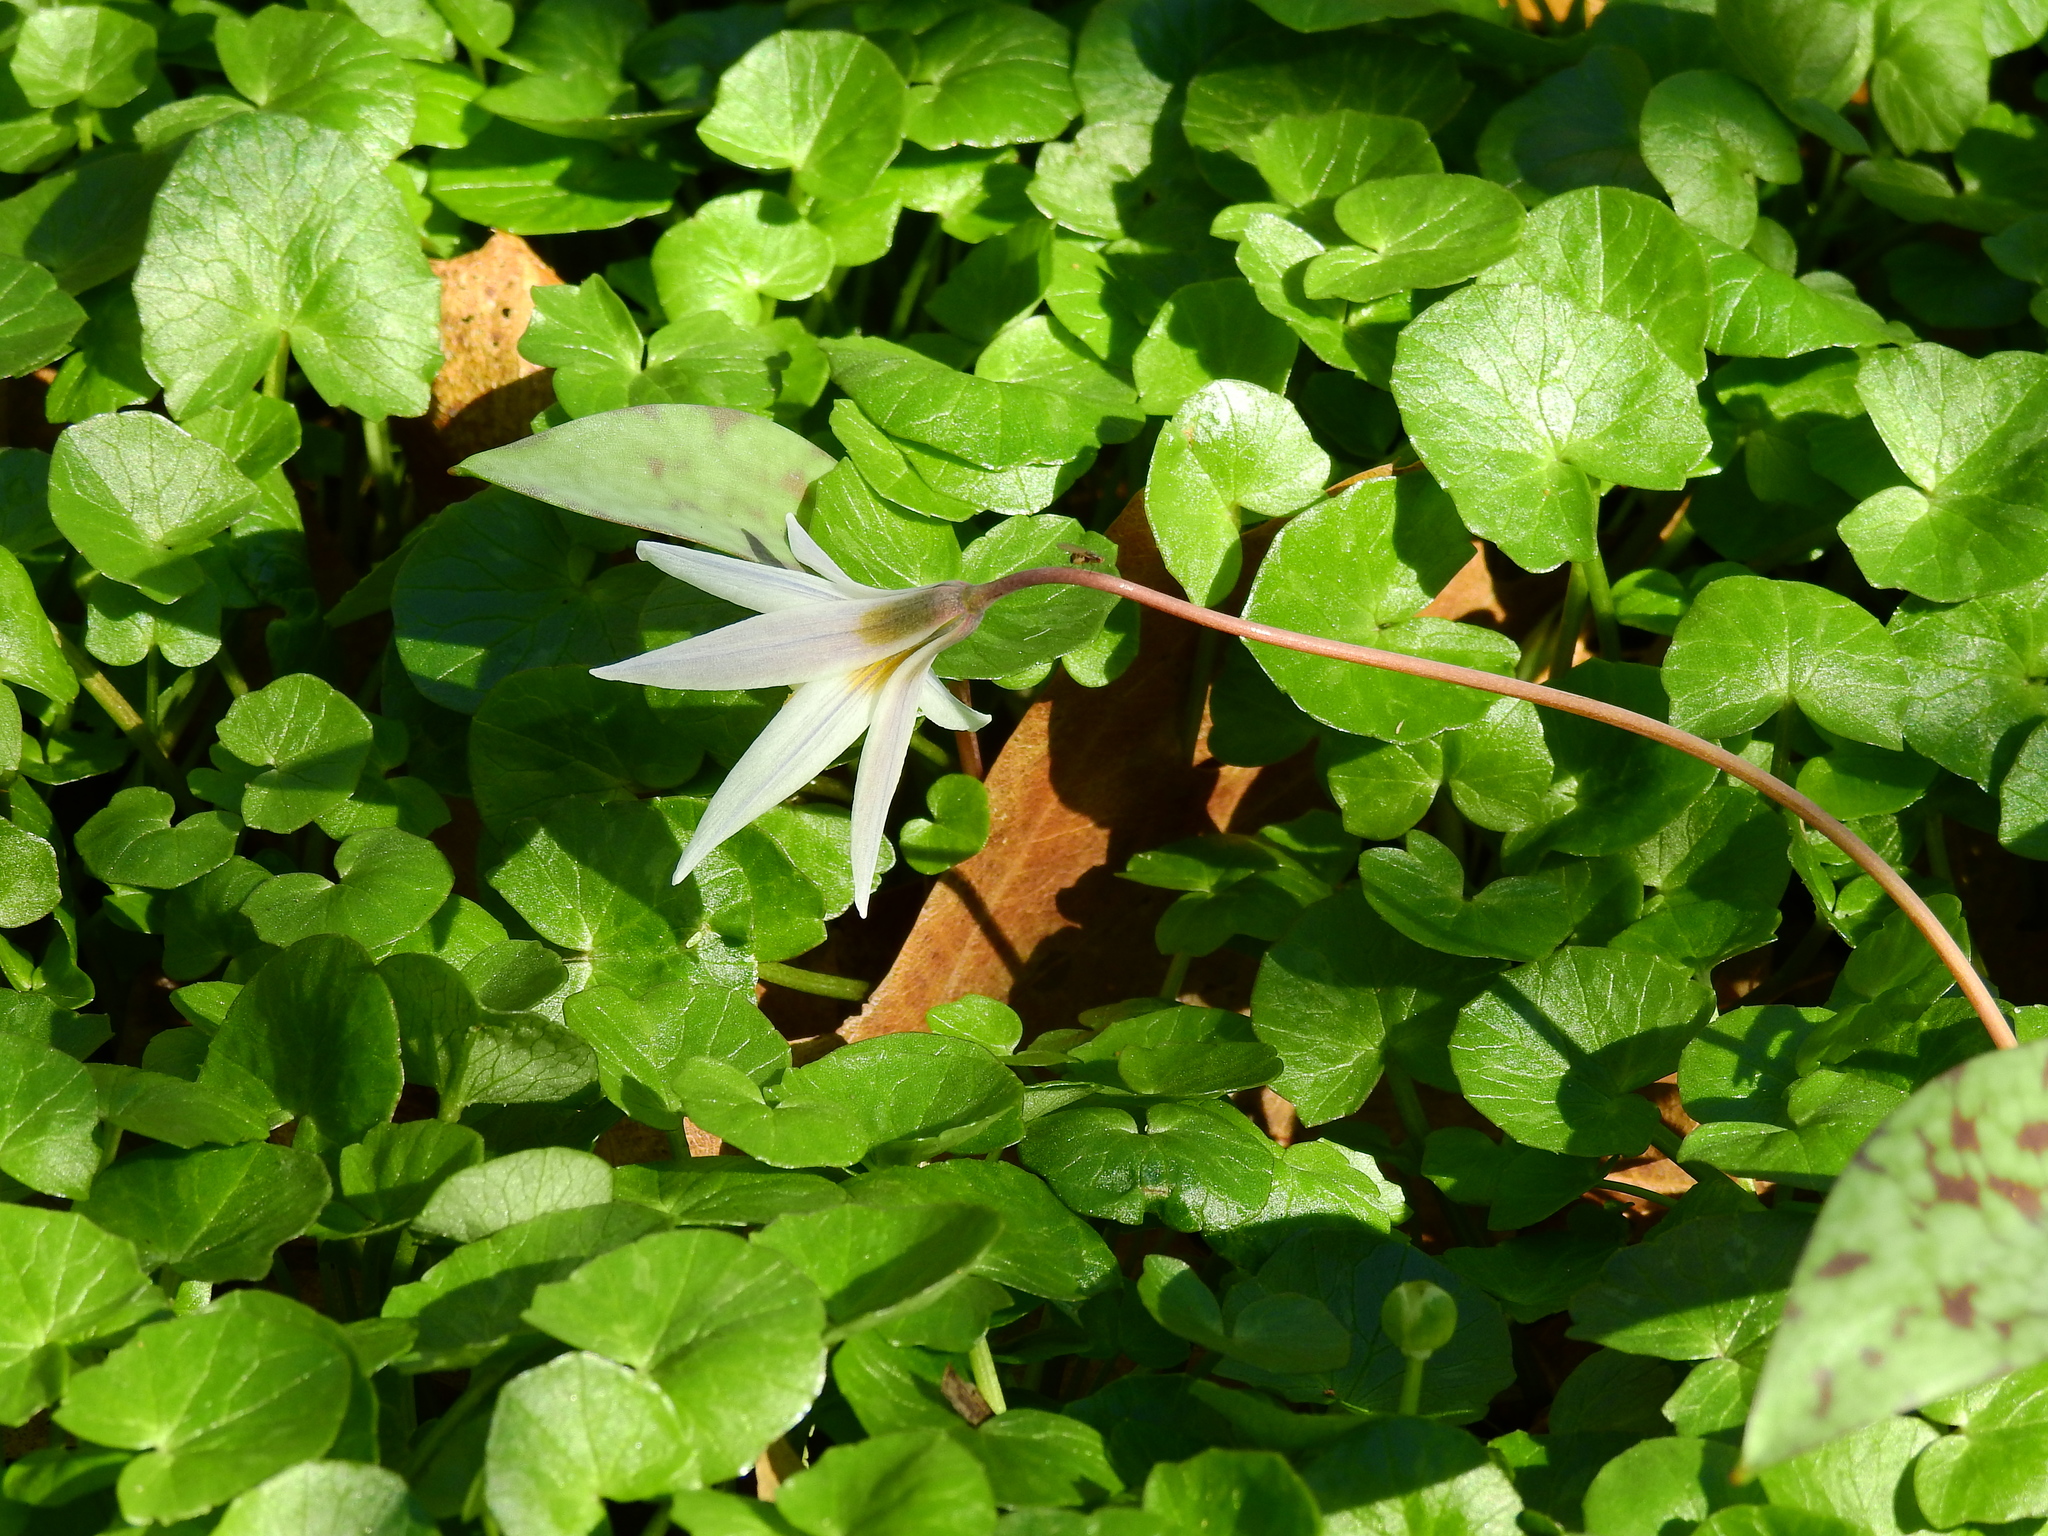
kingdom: Plantae
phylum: Tracheophyta
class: Liliopsida
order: Liliales
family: Liliaceae
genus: Erythronium
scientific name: Erythronium albidum
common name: White trout-lily
